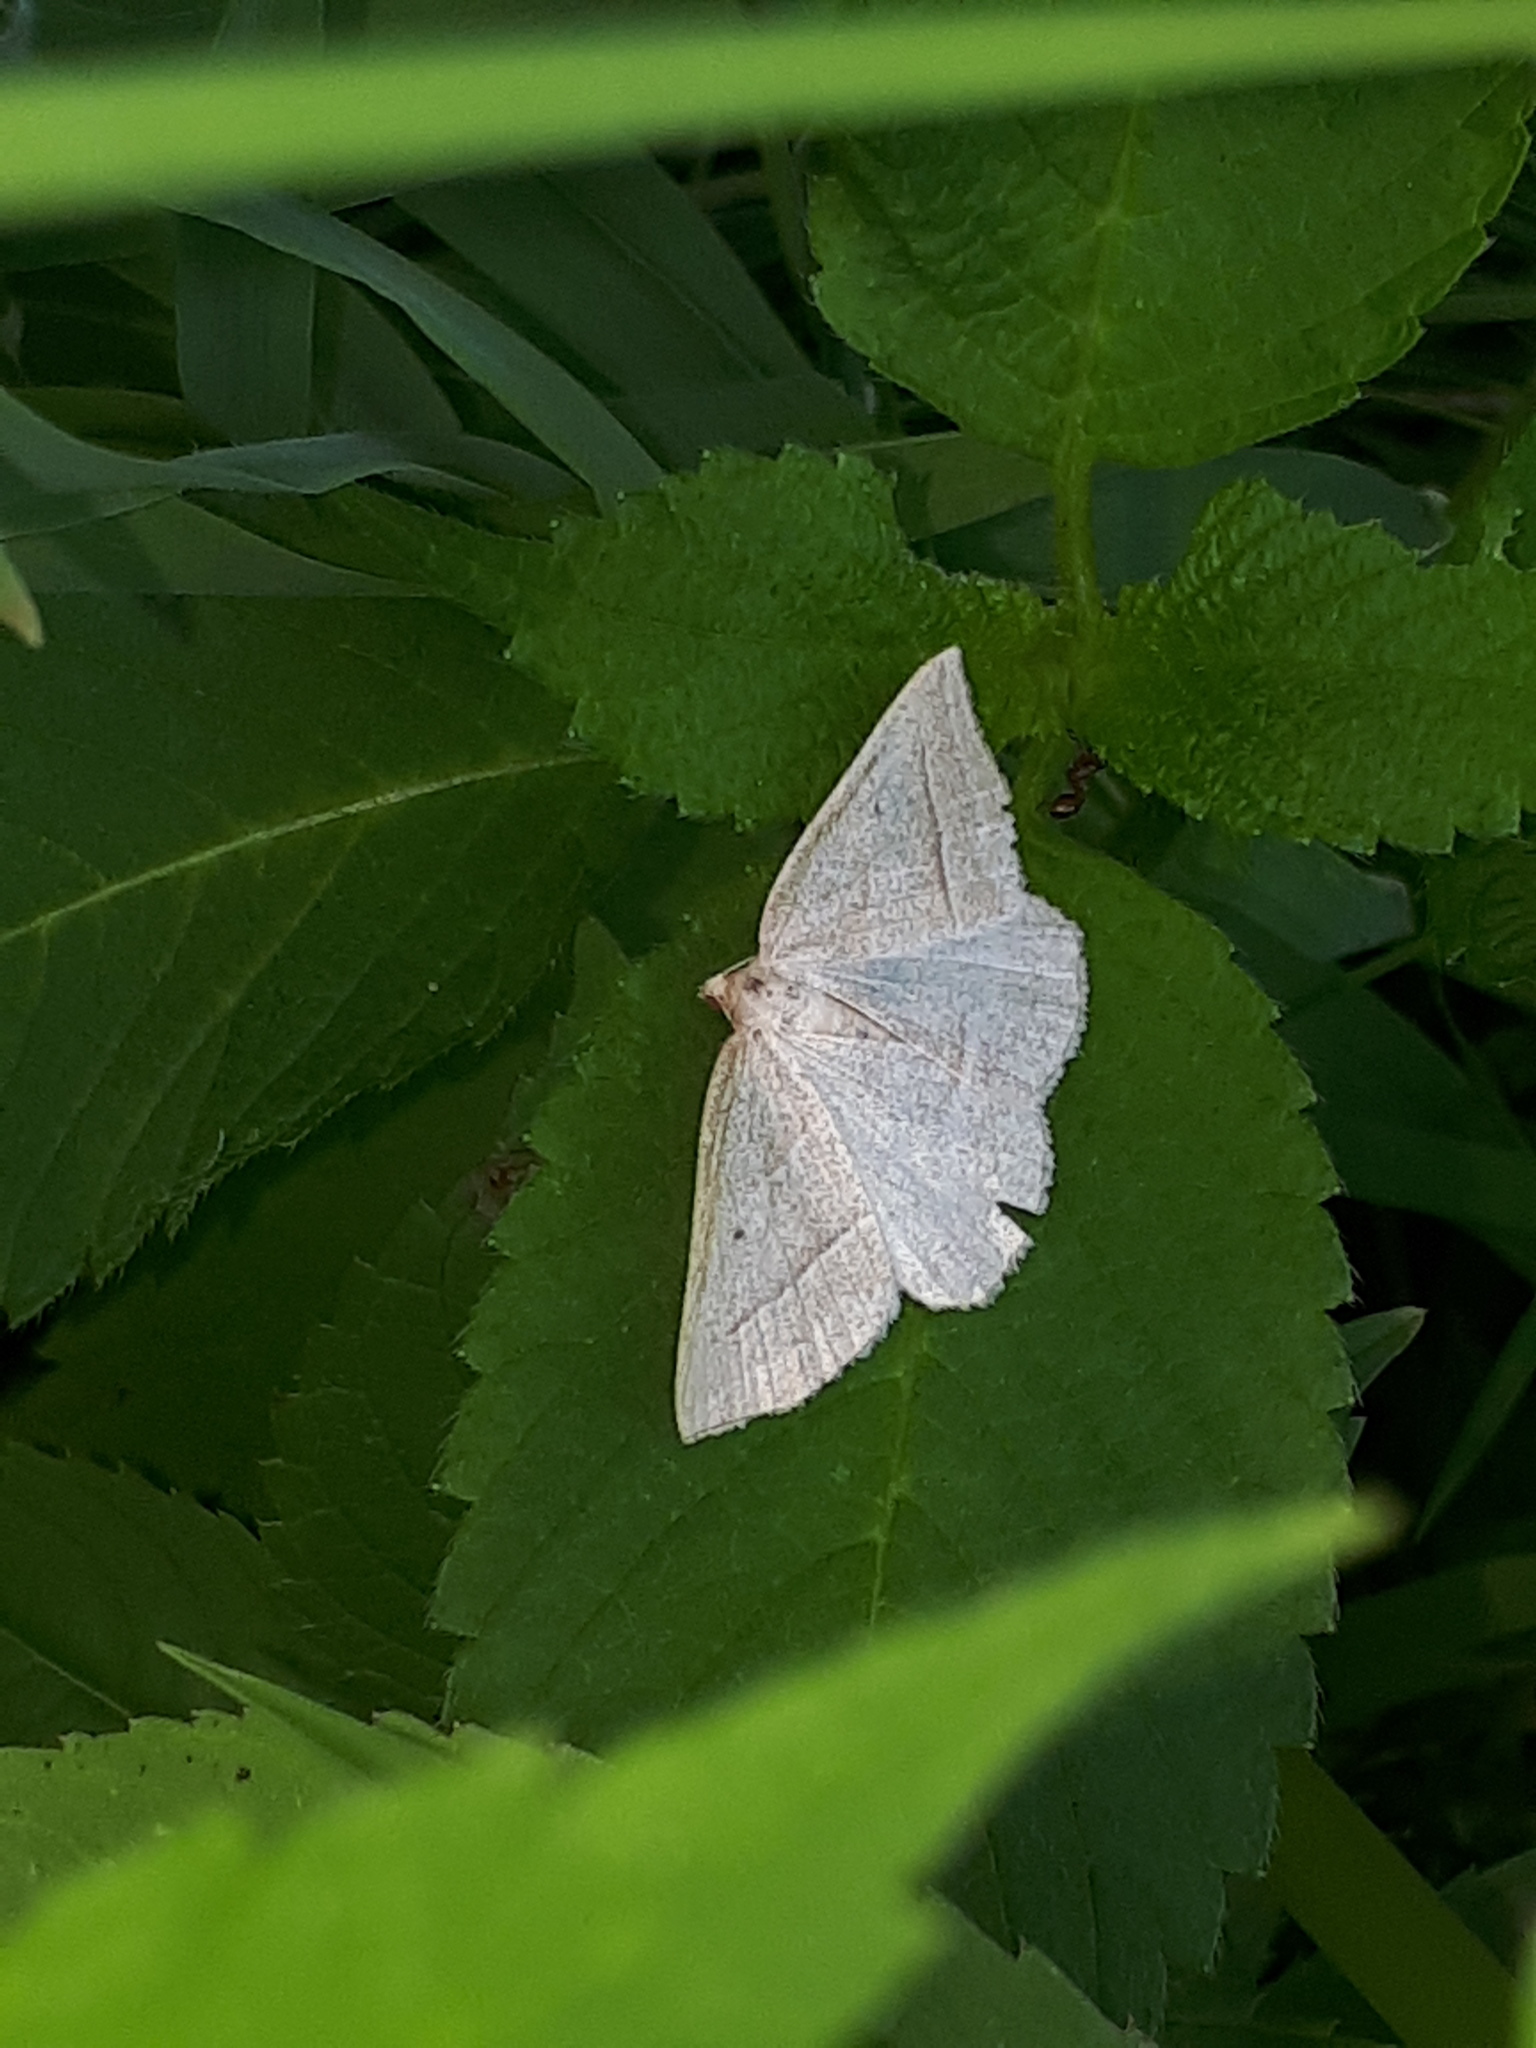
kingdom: Animalia
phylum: Arthropoda
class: Insecta
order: Lepidoptera
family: Pterophoridae
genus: Pterophorus
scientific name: Pterophorus Petrophora chlorosata
